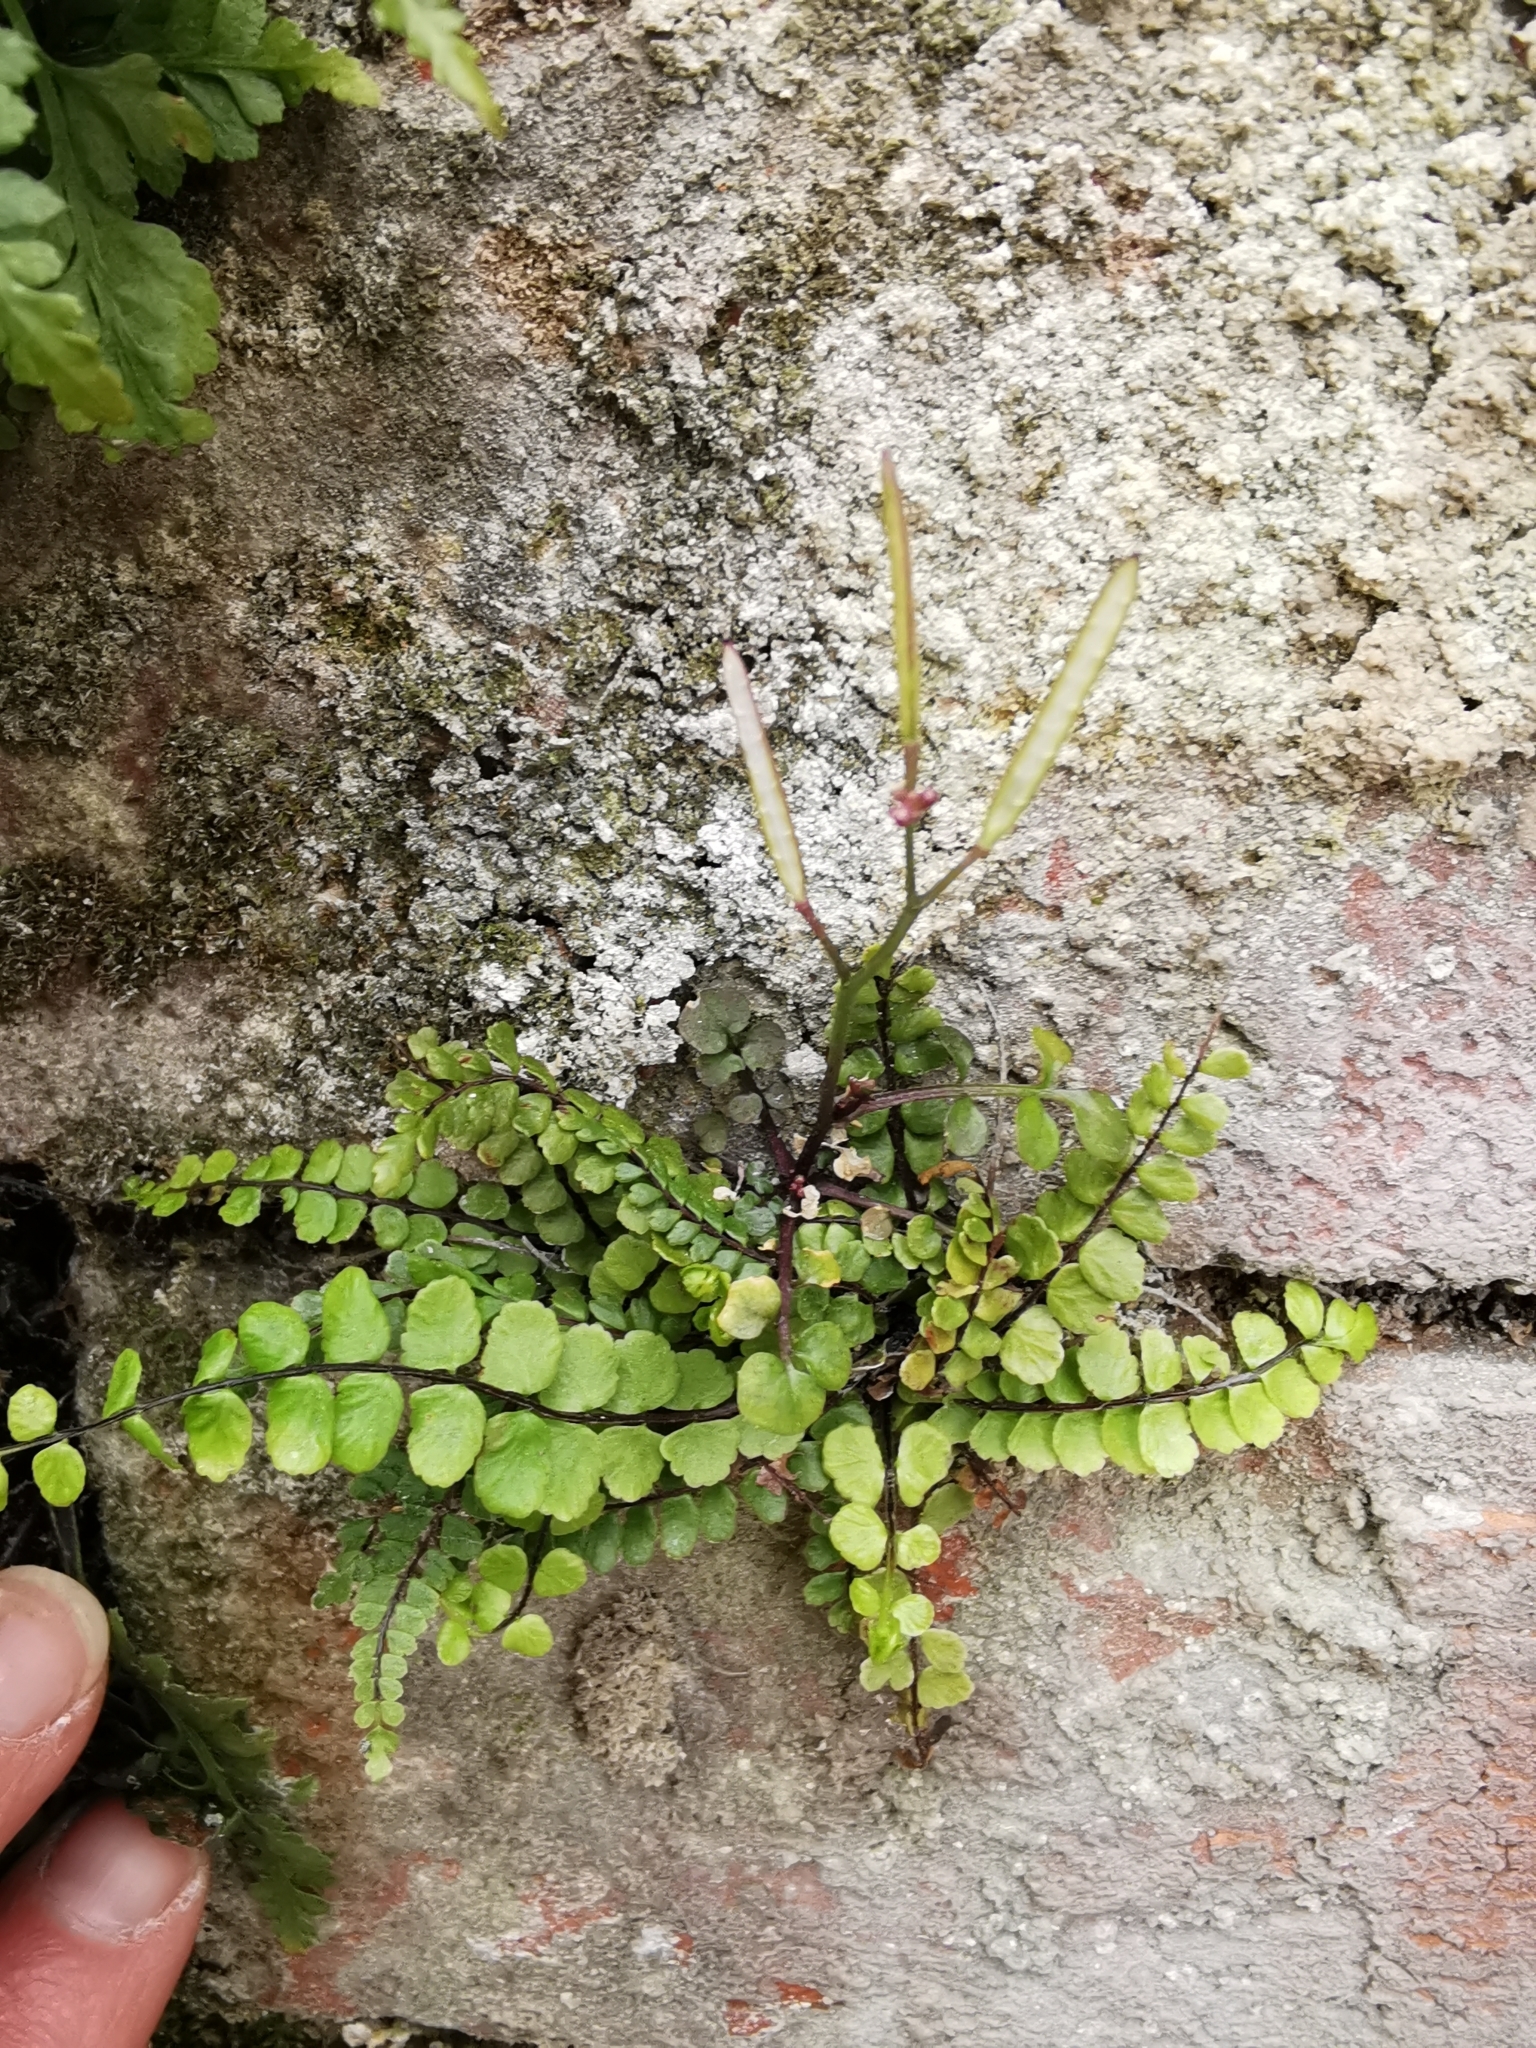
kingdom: Plantae
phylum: Tracheophyta
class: Polypodiopsida
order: Polypodiales
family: Aspleniaceae
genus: Asplenium
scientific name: Asplenium trichomanes
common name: Maidenhair spleenwort
